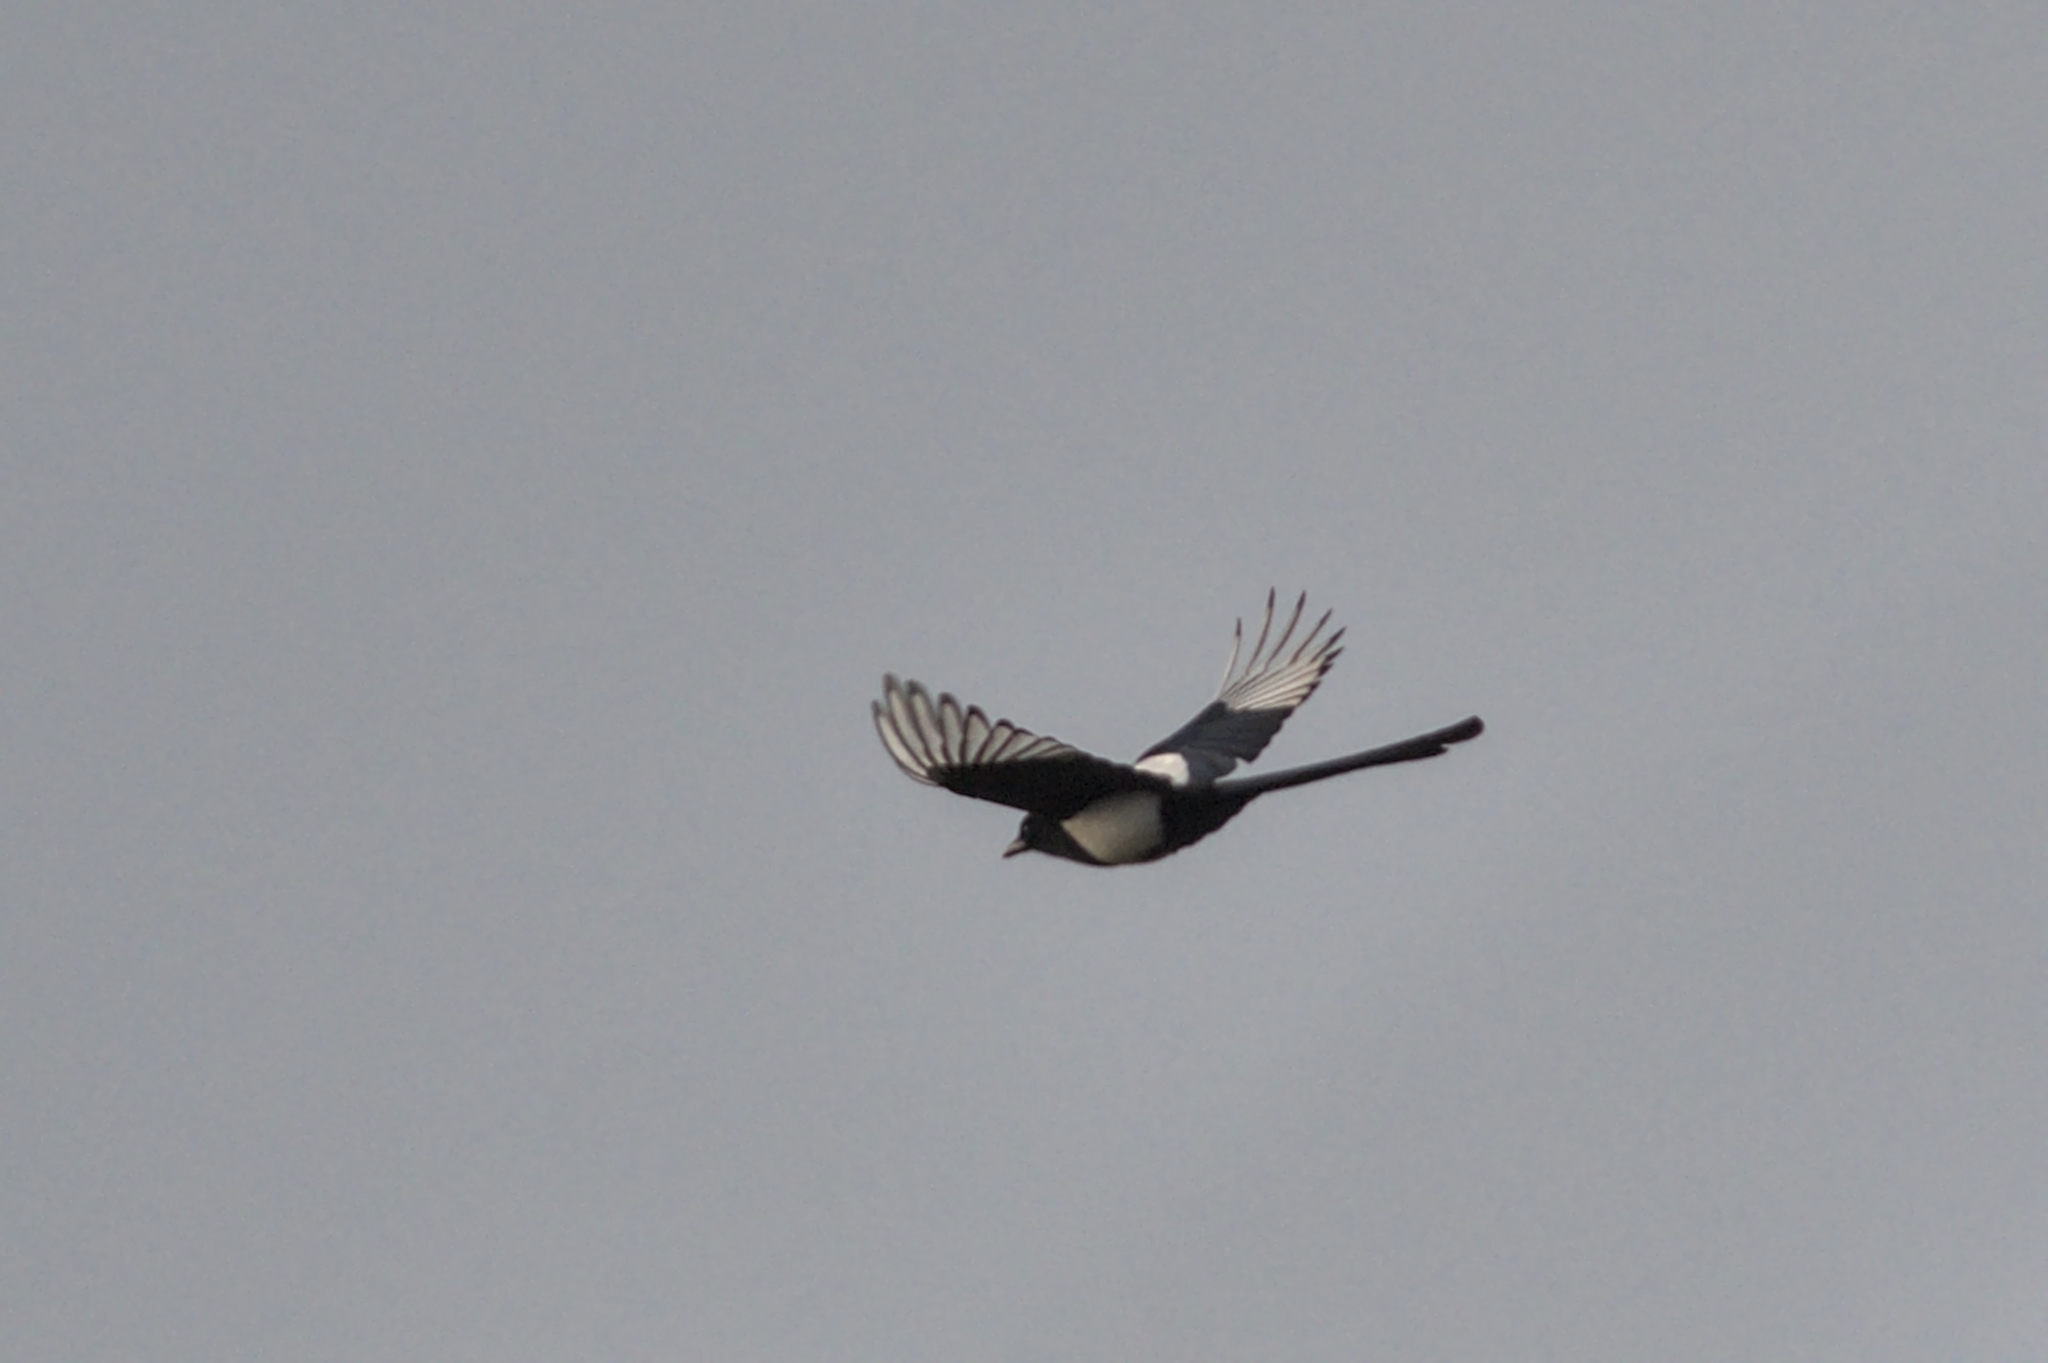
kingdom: Animalia
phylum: Chordata
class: Aves
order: Passeriformes
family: Corvidae
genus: Pica
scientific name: Pica pica
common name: Eurasian magpie
